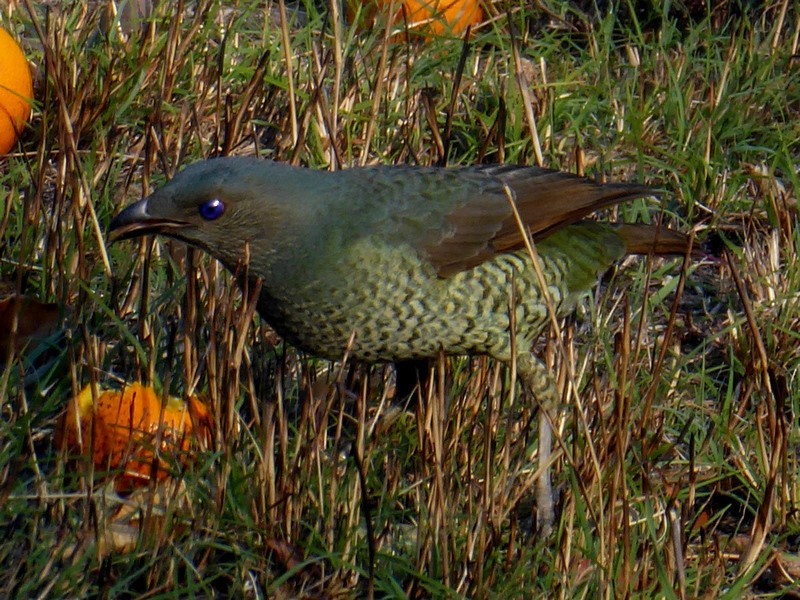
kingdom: Animalia
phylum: Chordata
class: Aves
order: Passeriformes
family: Ptilonorhynchidae
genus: Ptilonorhynchus
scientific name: Ptilonorhynchus violaceus
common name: Satin bowerbird
